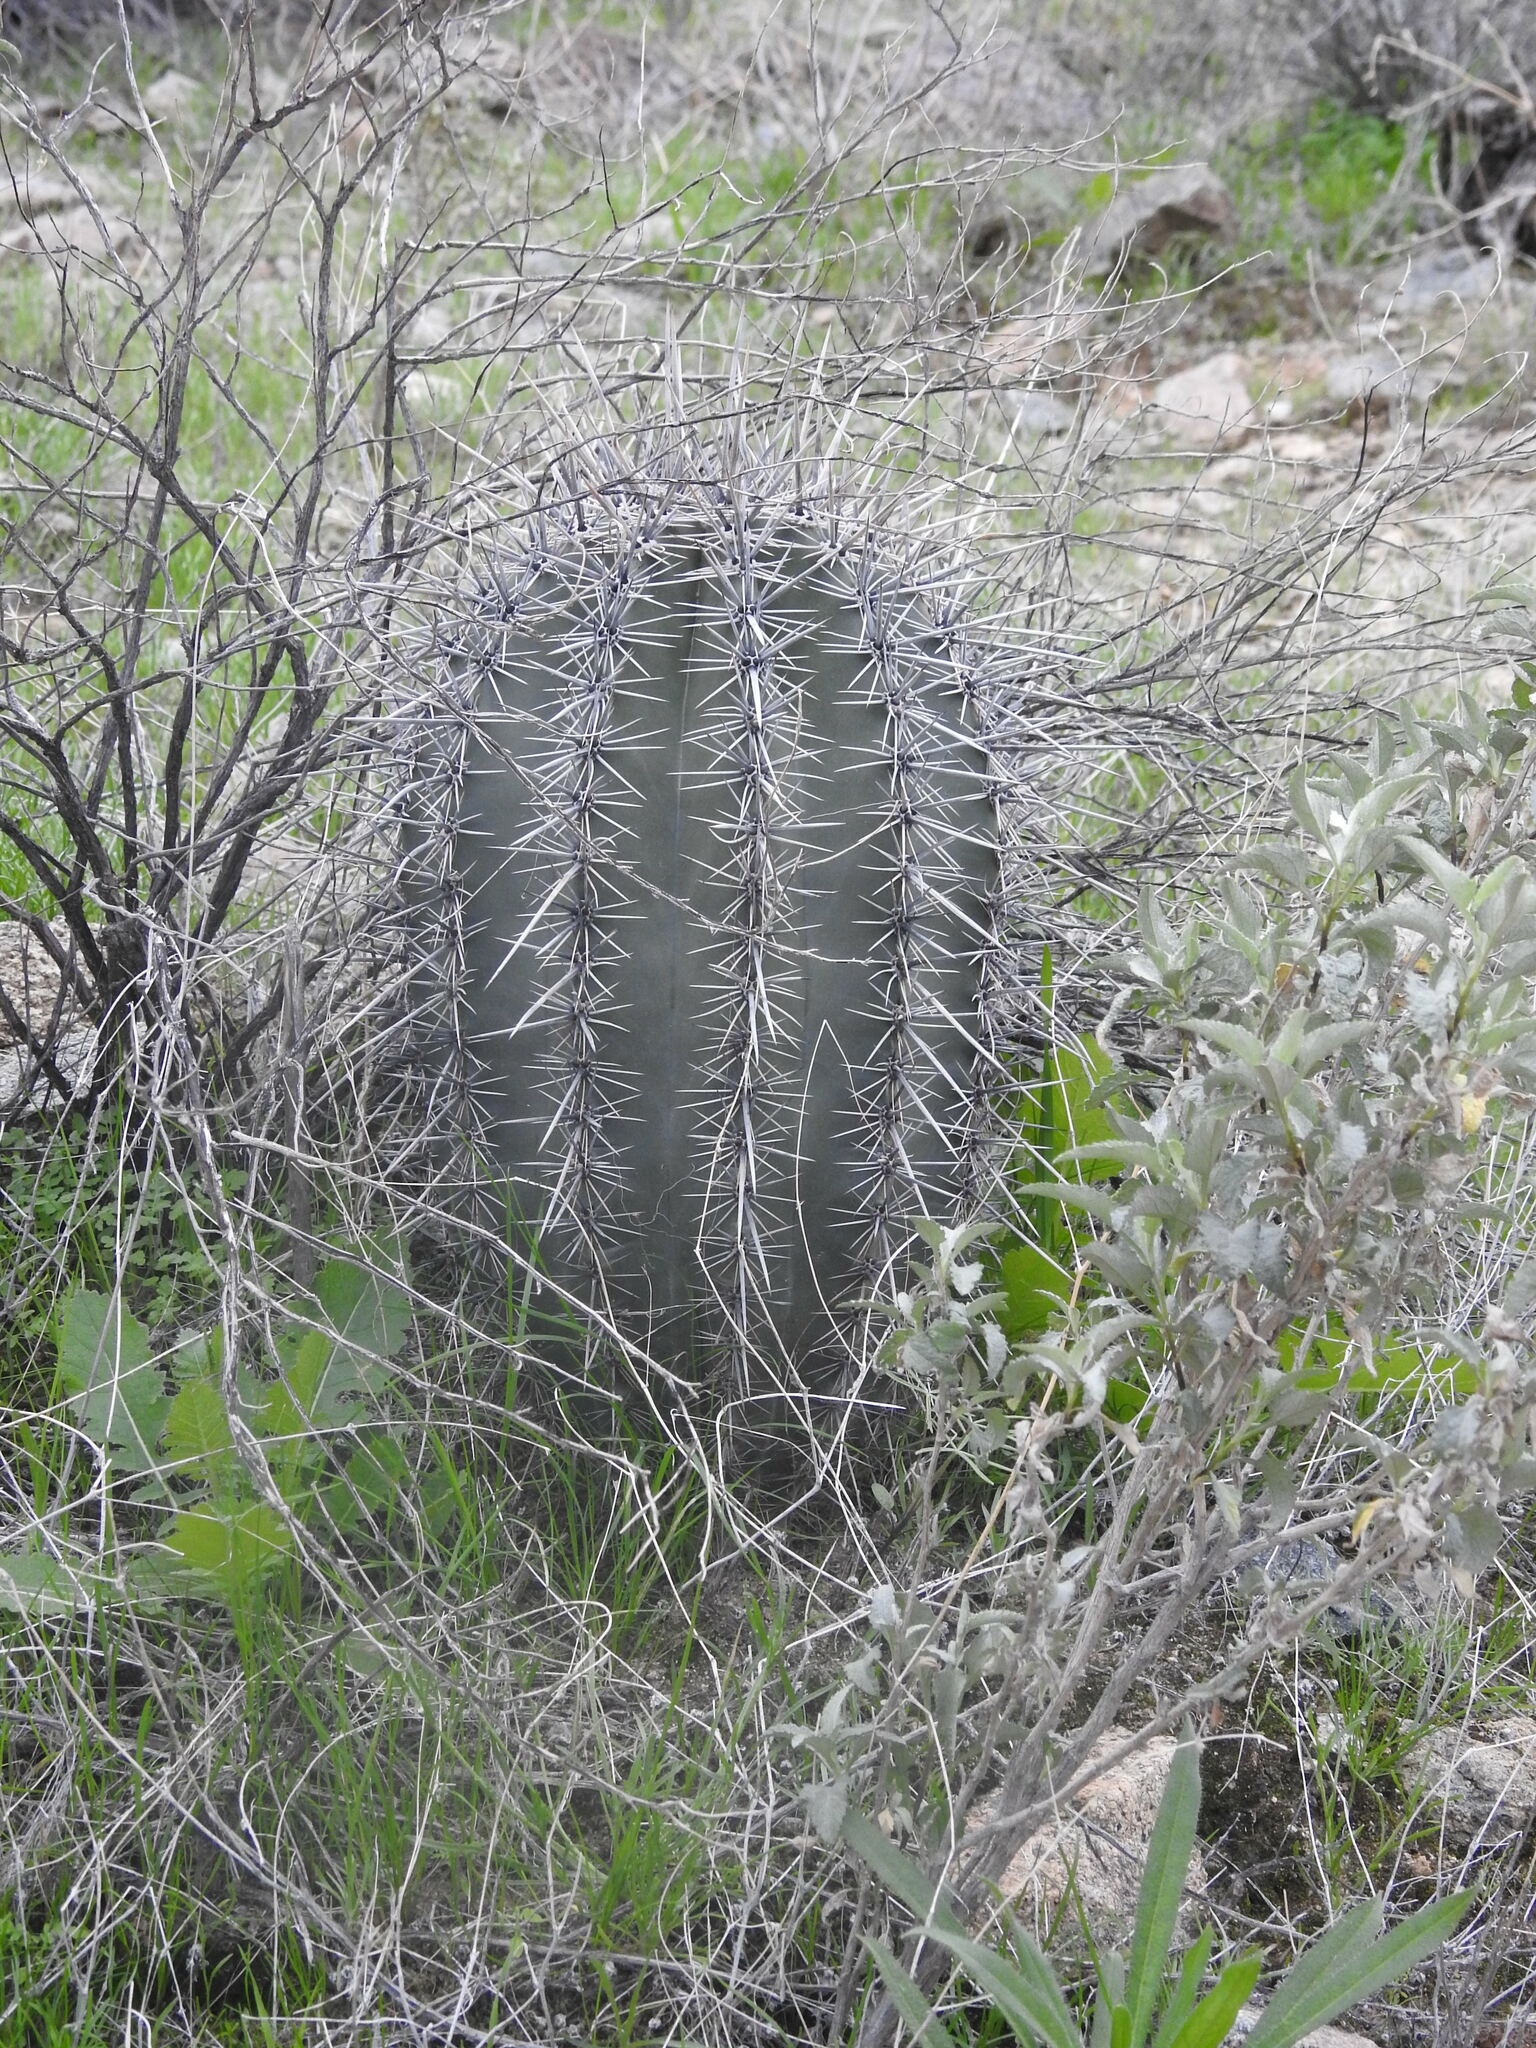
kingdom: Plantae
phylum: Tracheophyta
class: Magnoliopsida
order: Caryophyllales
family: Cactaceae
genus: Carnegiea
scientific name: Carnegiea gigantea
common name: Saguaro
